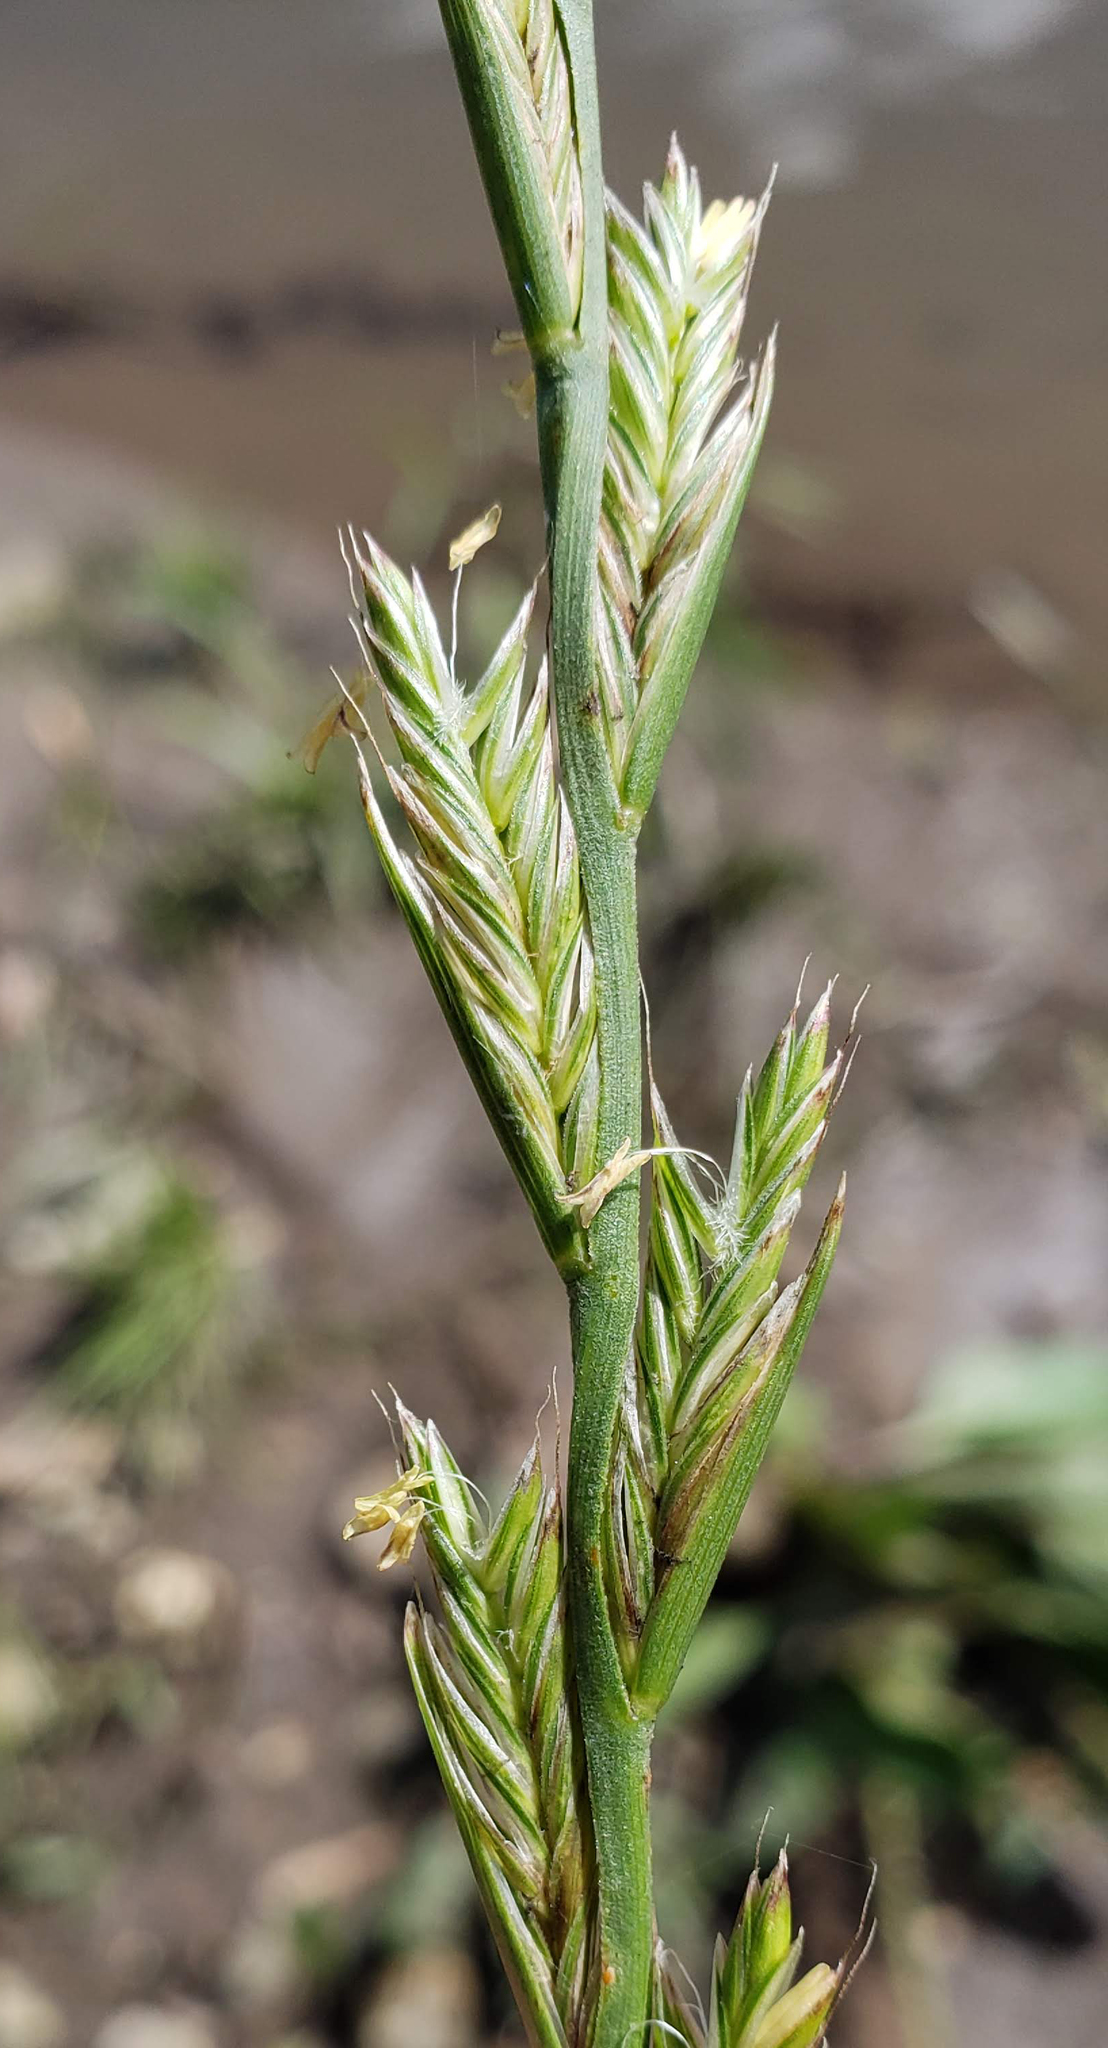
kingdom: Plantae
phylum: Tracheophyta
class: Liliopsida
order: Poales
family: Poaceae
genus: Lolium
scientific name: Lolium perenne
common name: Perennial ryegrass
